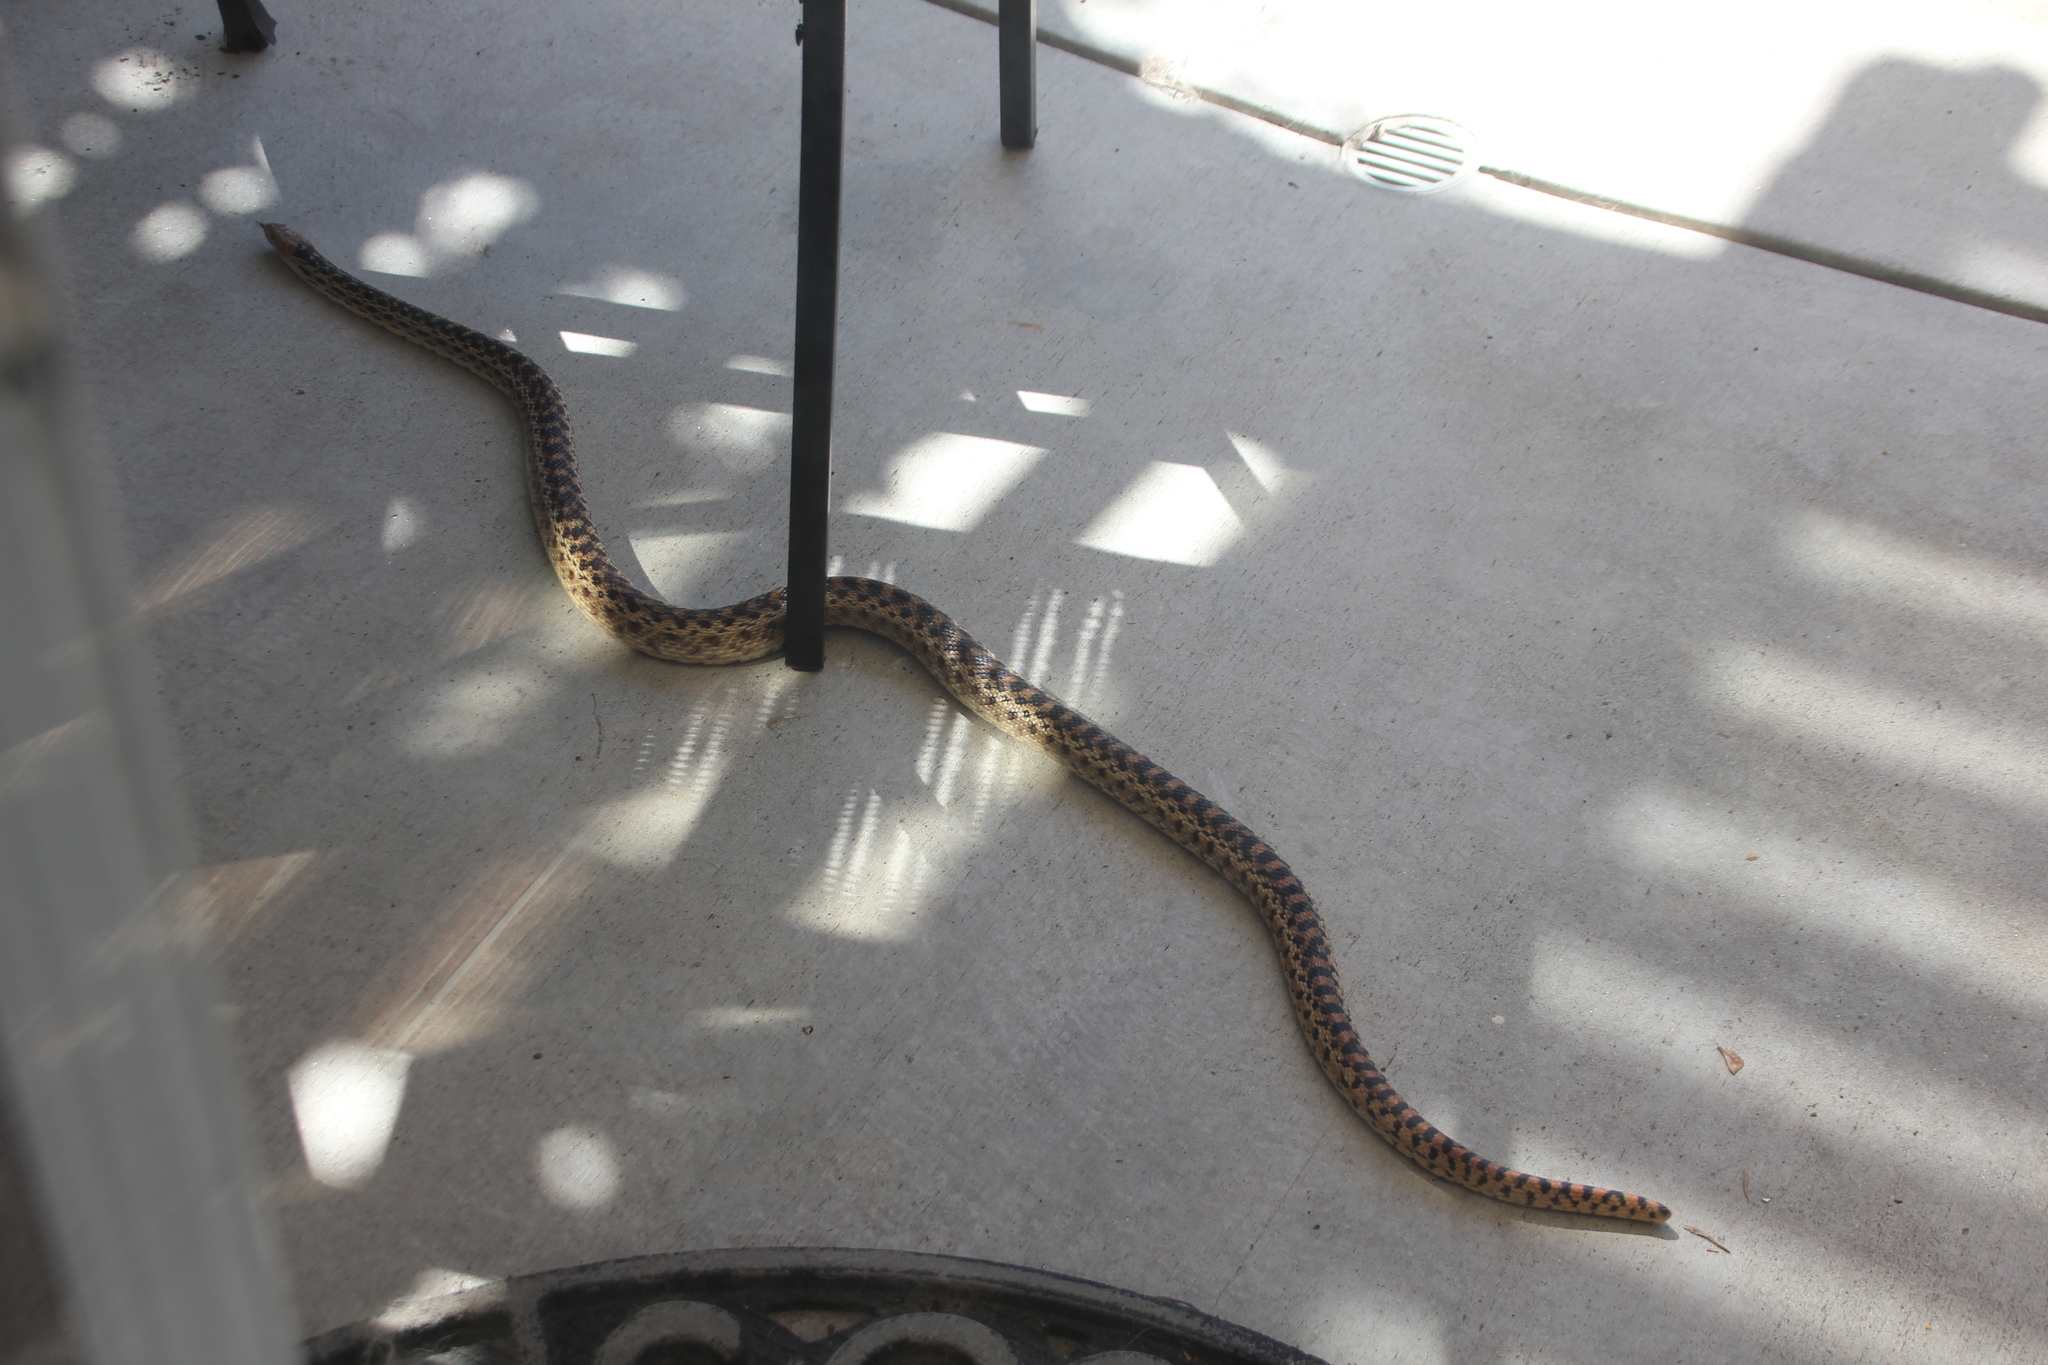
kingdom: Animalia
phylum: Chordata
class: Squamata
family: Colubridae
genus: Pituophis
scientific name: Pituophis catenifer
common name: Gopher snake
